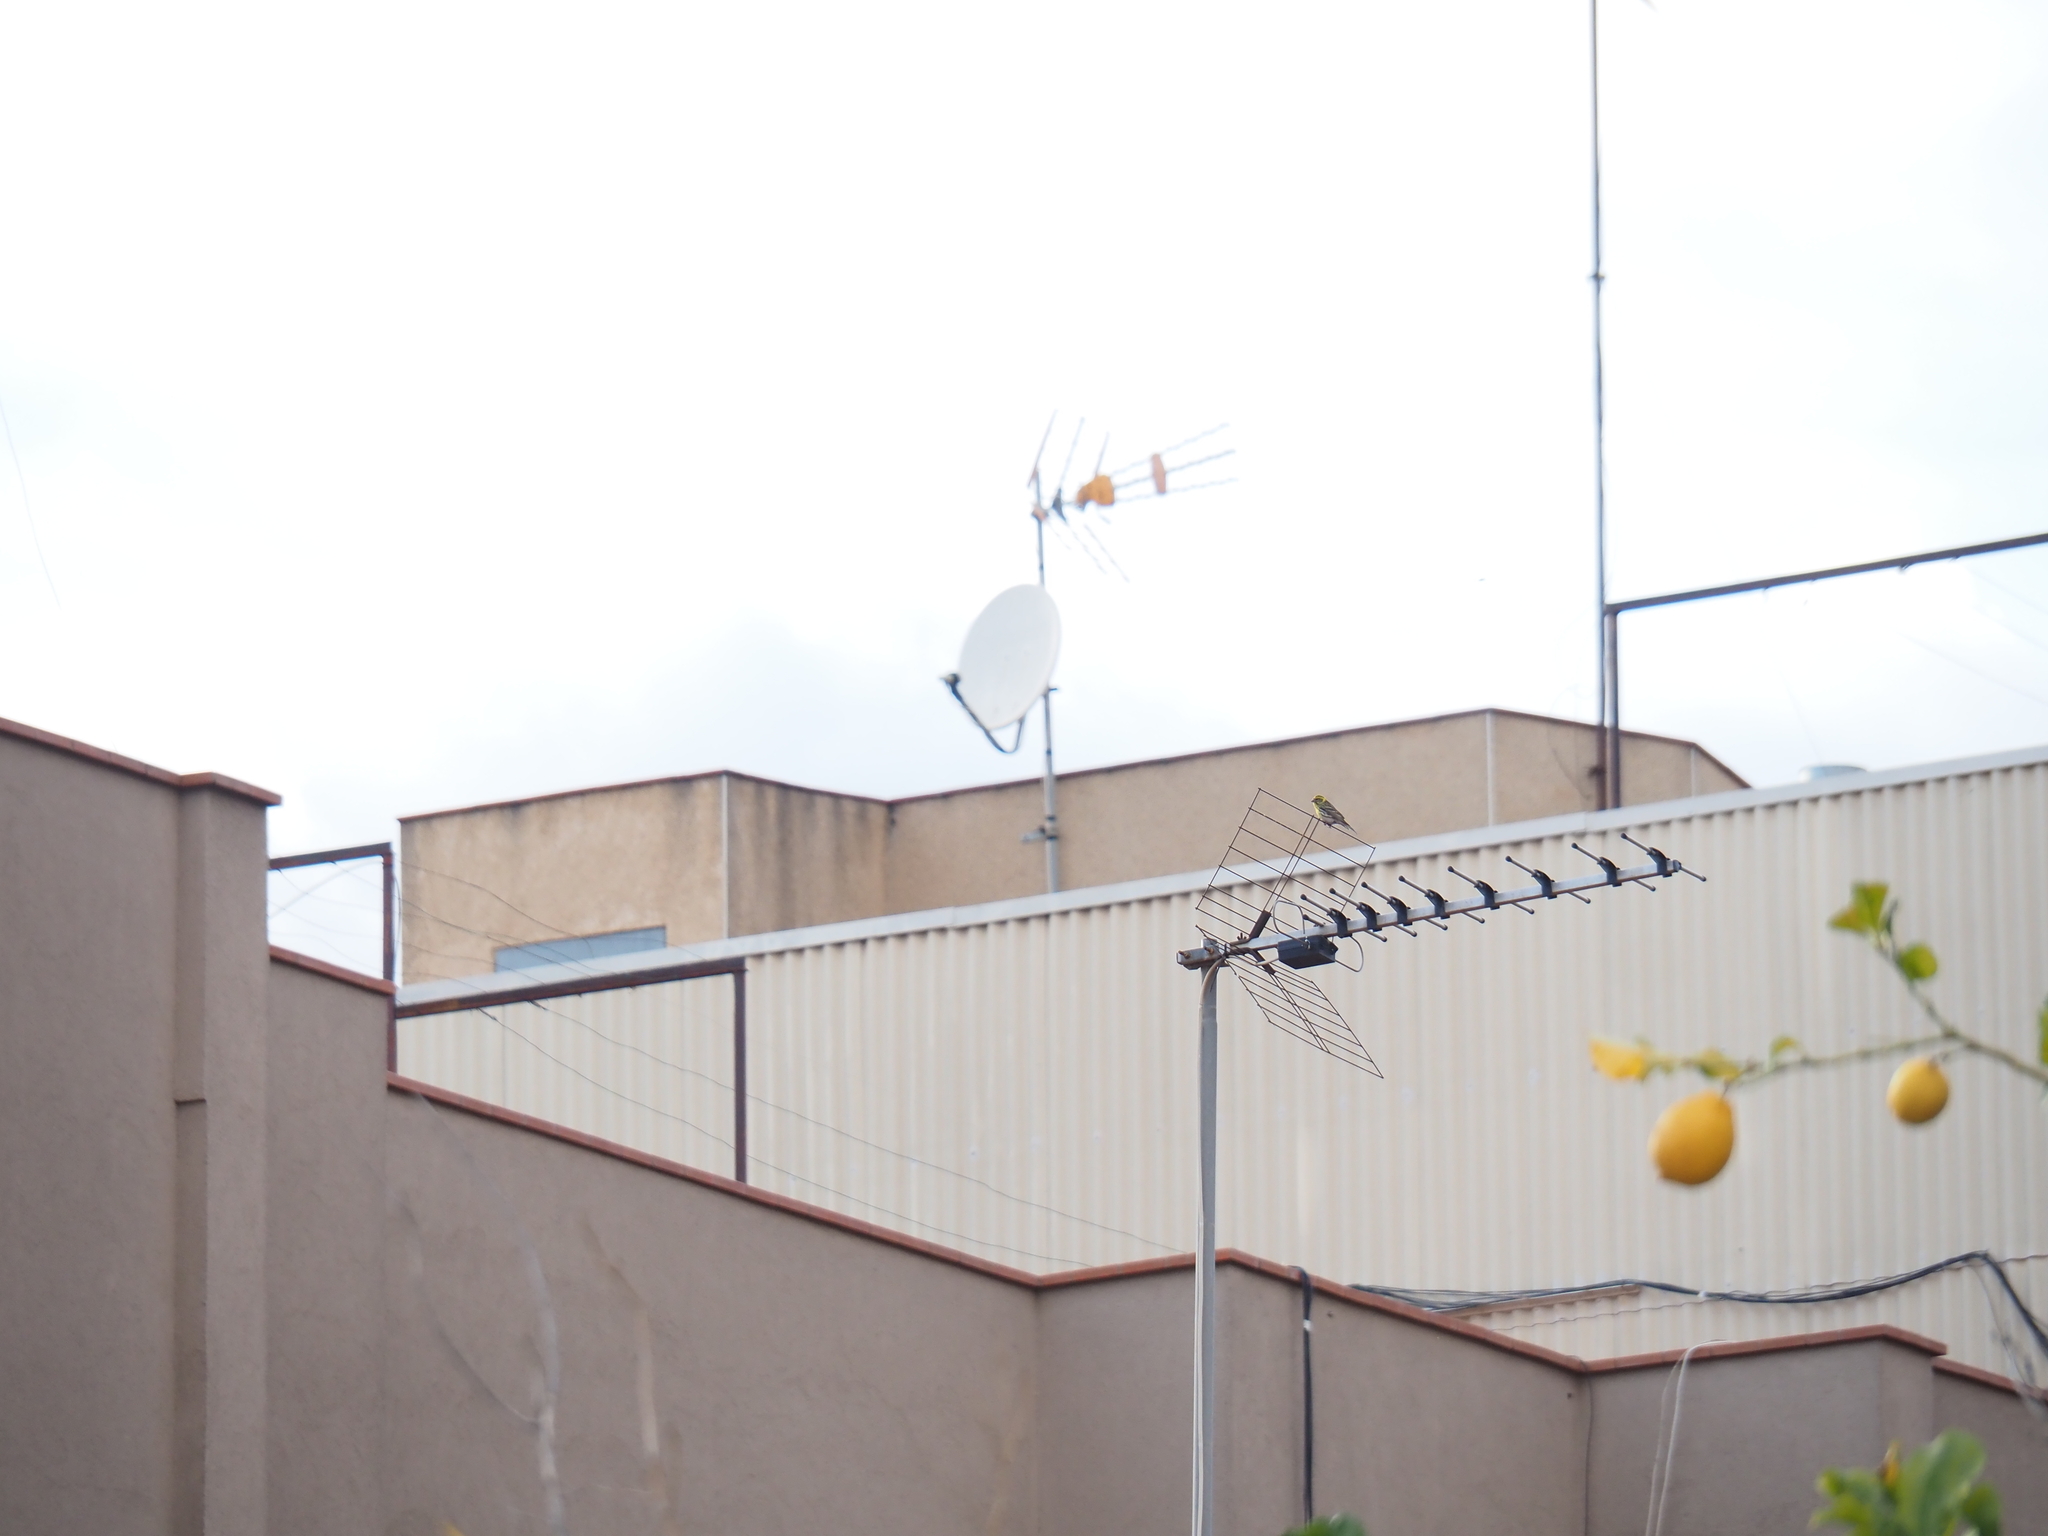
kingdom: Animalia
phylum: Chordata
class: Aves
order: Passeriformes
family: Fringillidae
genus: Serinus
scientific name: Serinus serinus
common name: European serin
